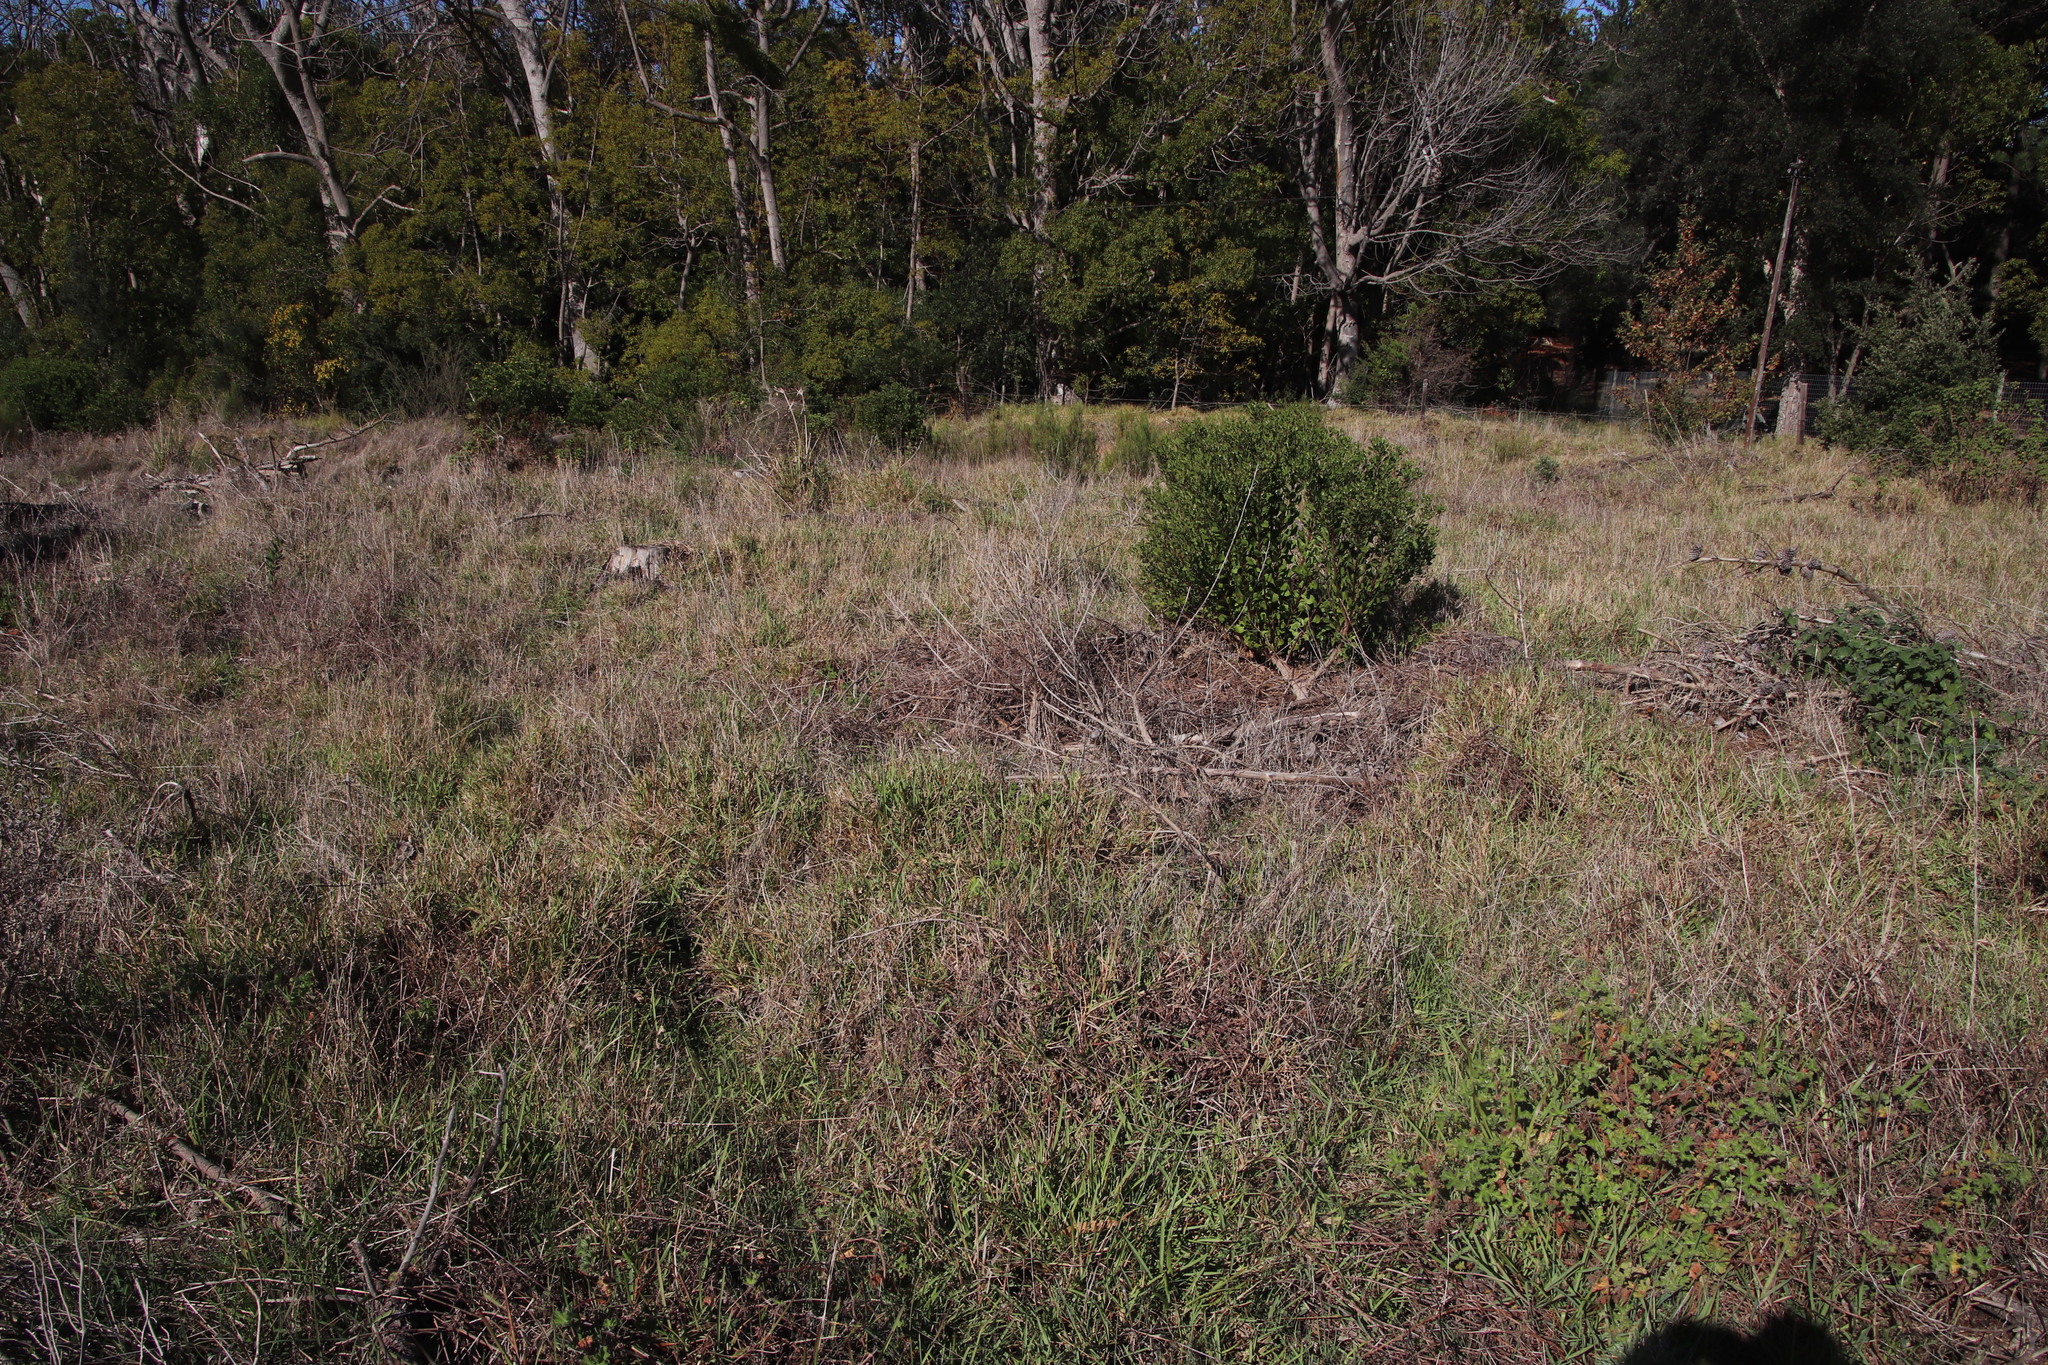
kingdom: Plantae
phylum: Tracheophyta
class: Liliopsida
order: Poales
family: Poaceae
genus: Stenotaphrum
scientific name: Stenotaphrum secundatum
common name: St. augustine grass
